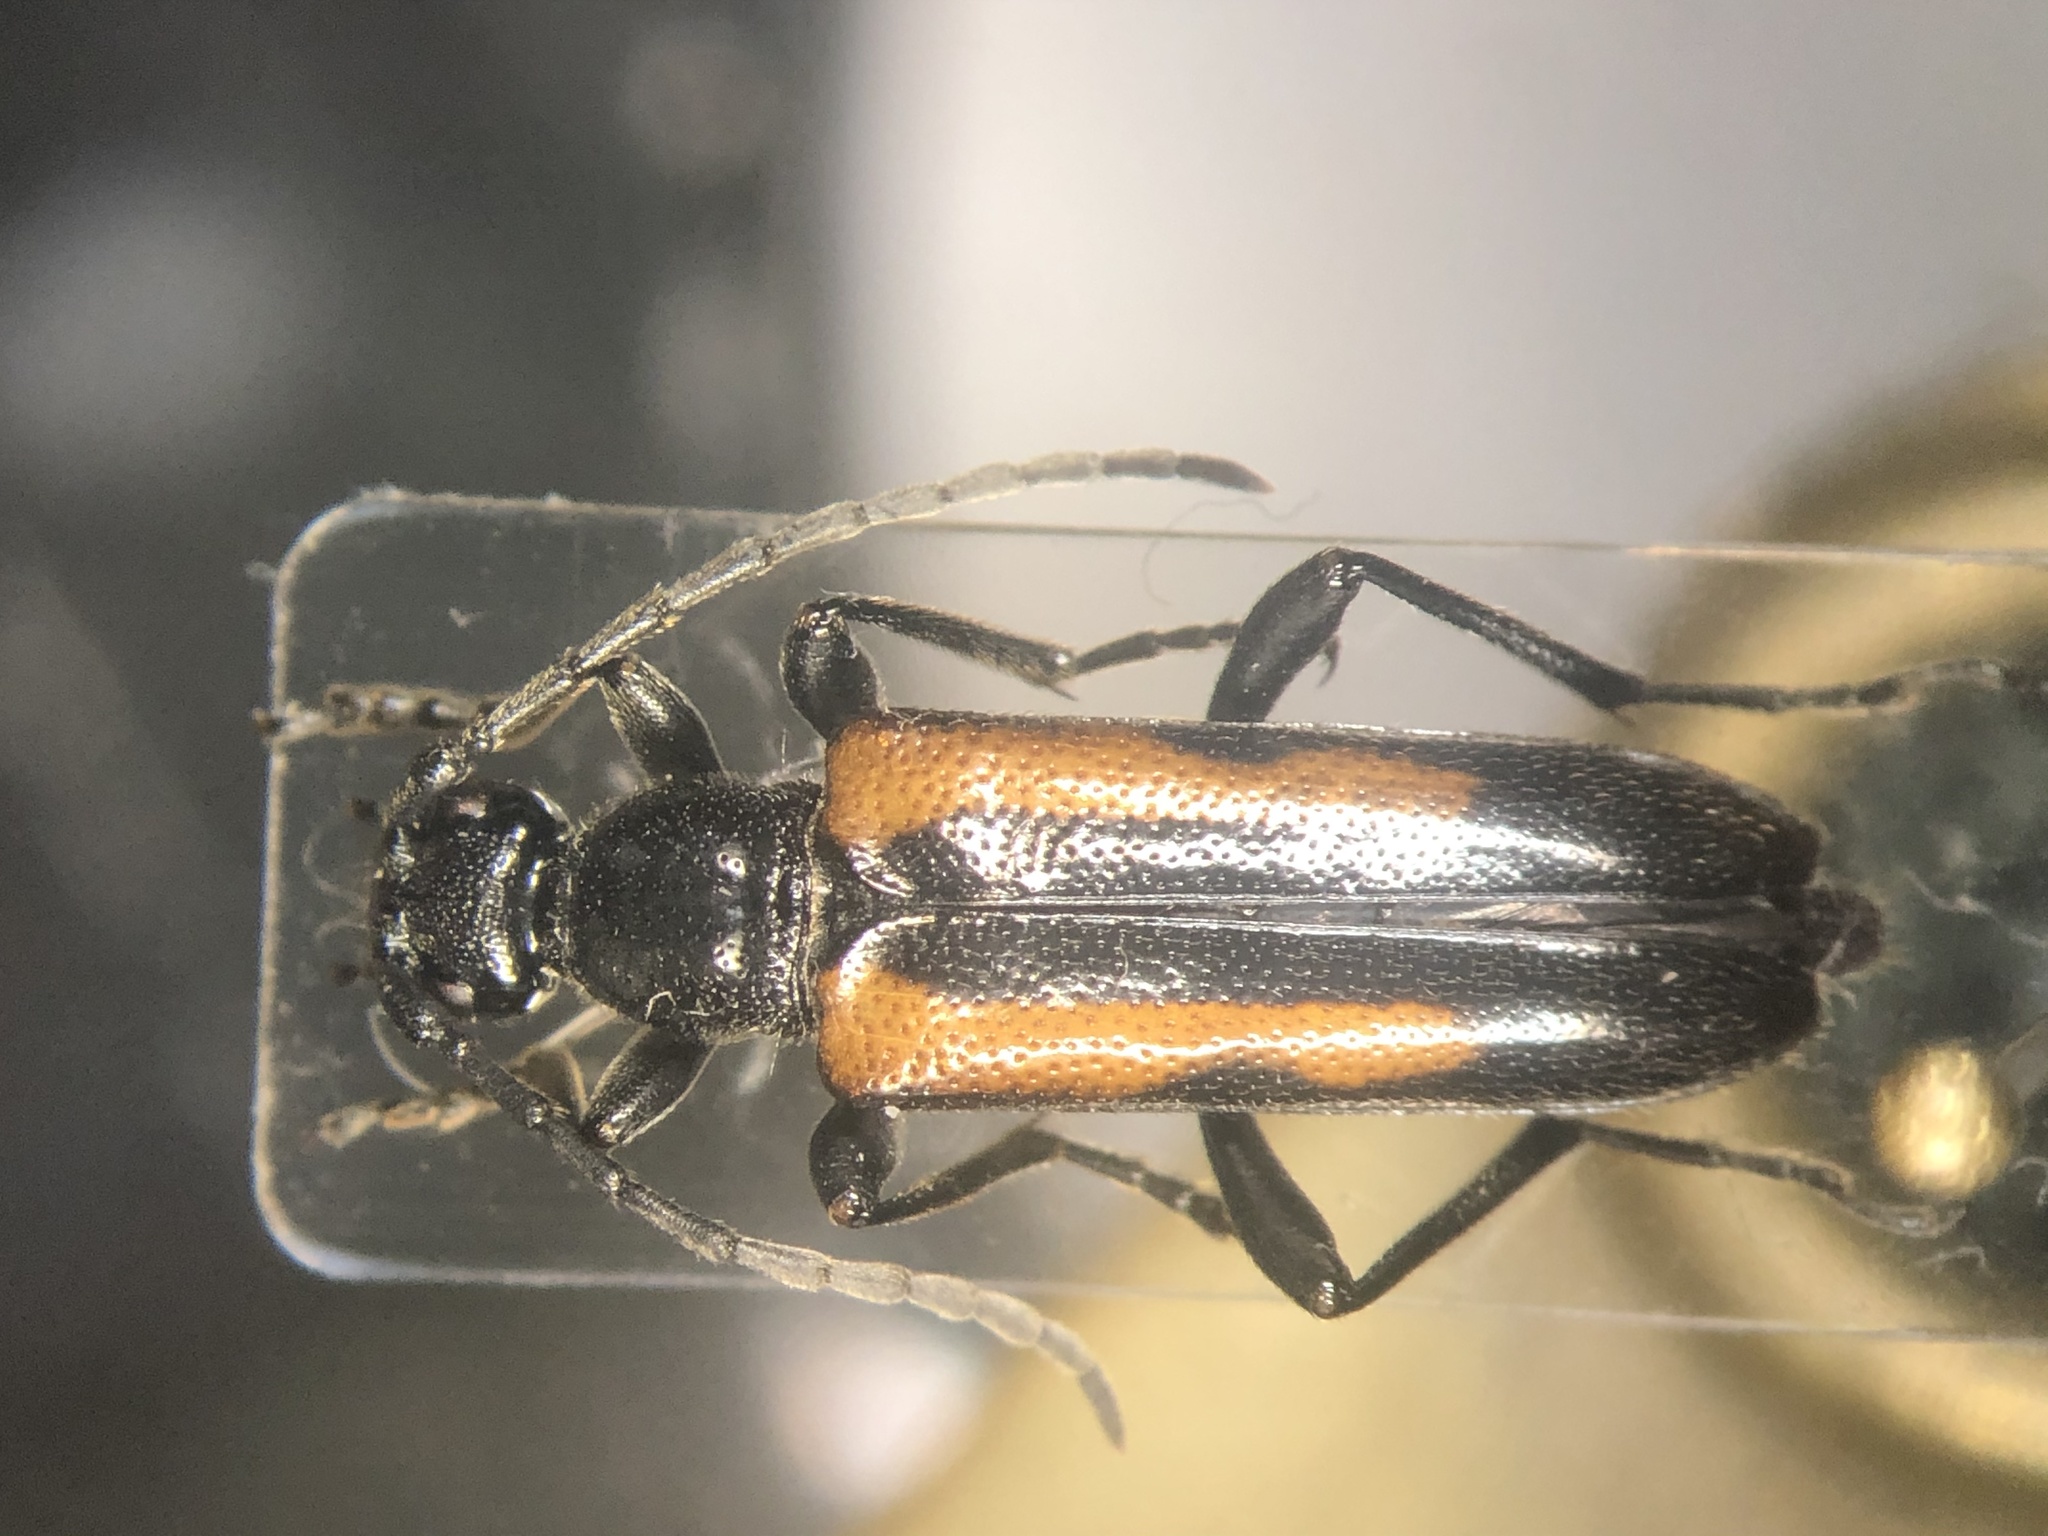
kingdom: Animalia
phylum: Arthropoda
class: Insecta
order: Coleoptera
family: Cerambycidae
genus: Strangalepta
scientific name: Strangalepta abbreviata
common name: Strangalepta flower longhorn beetle
